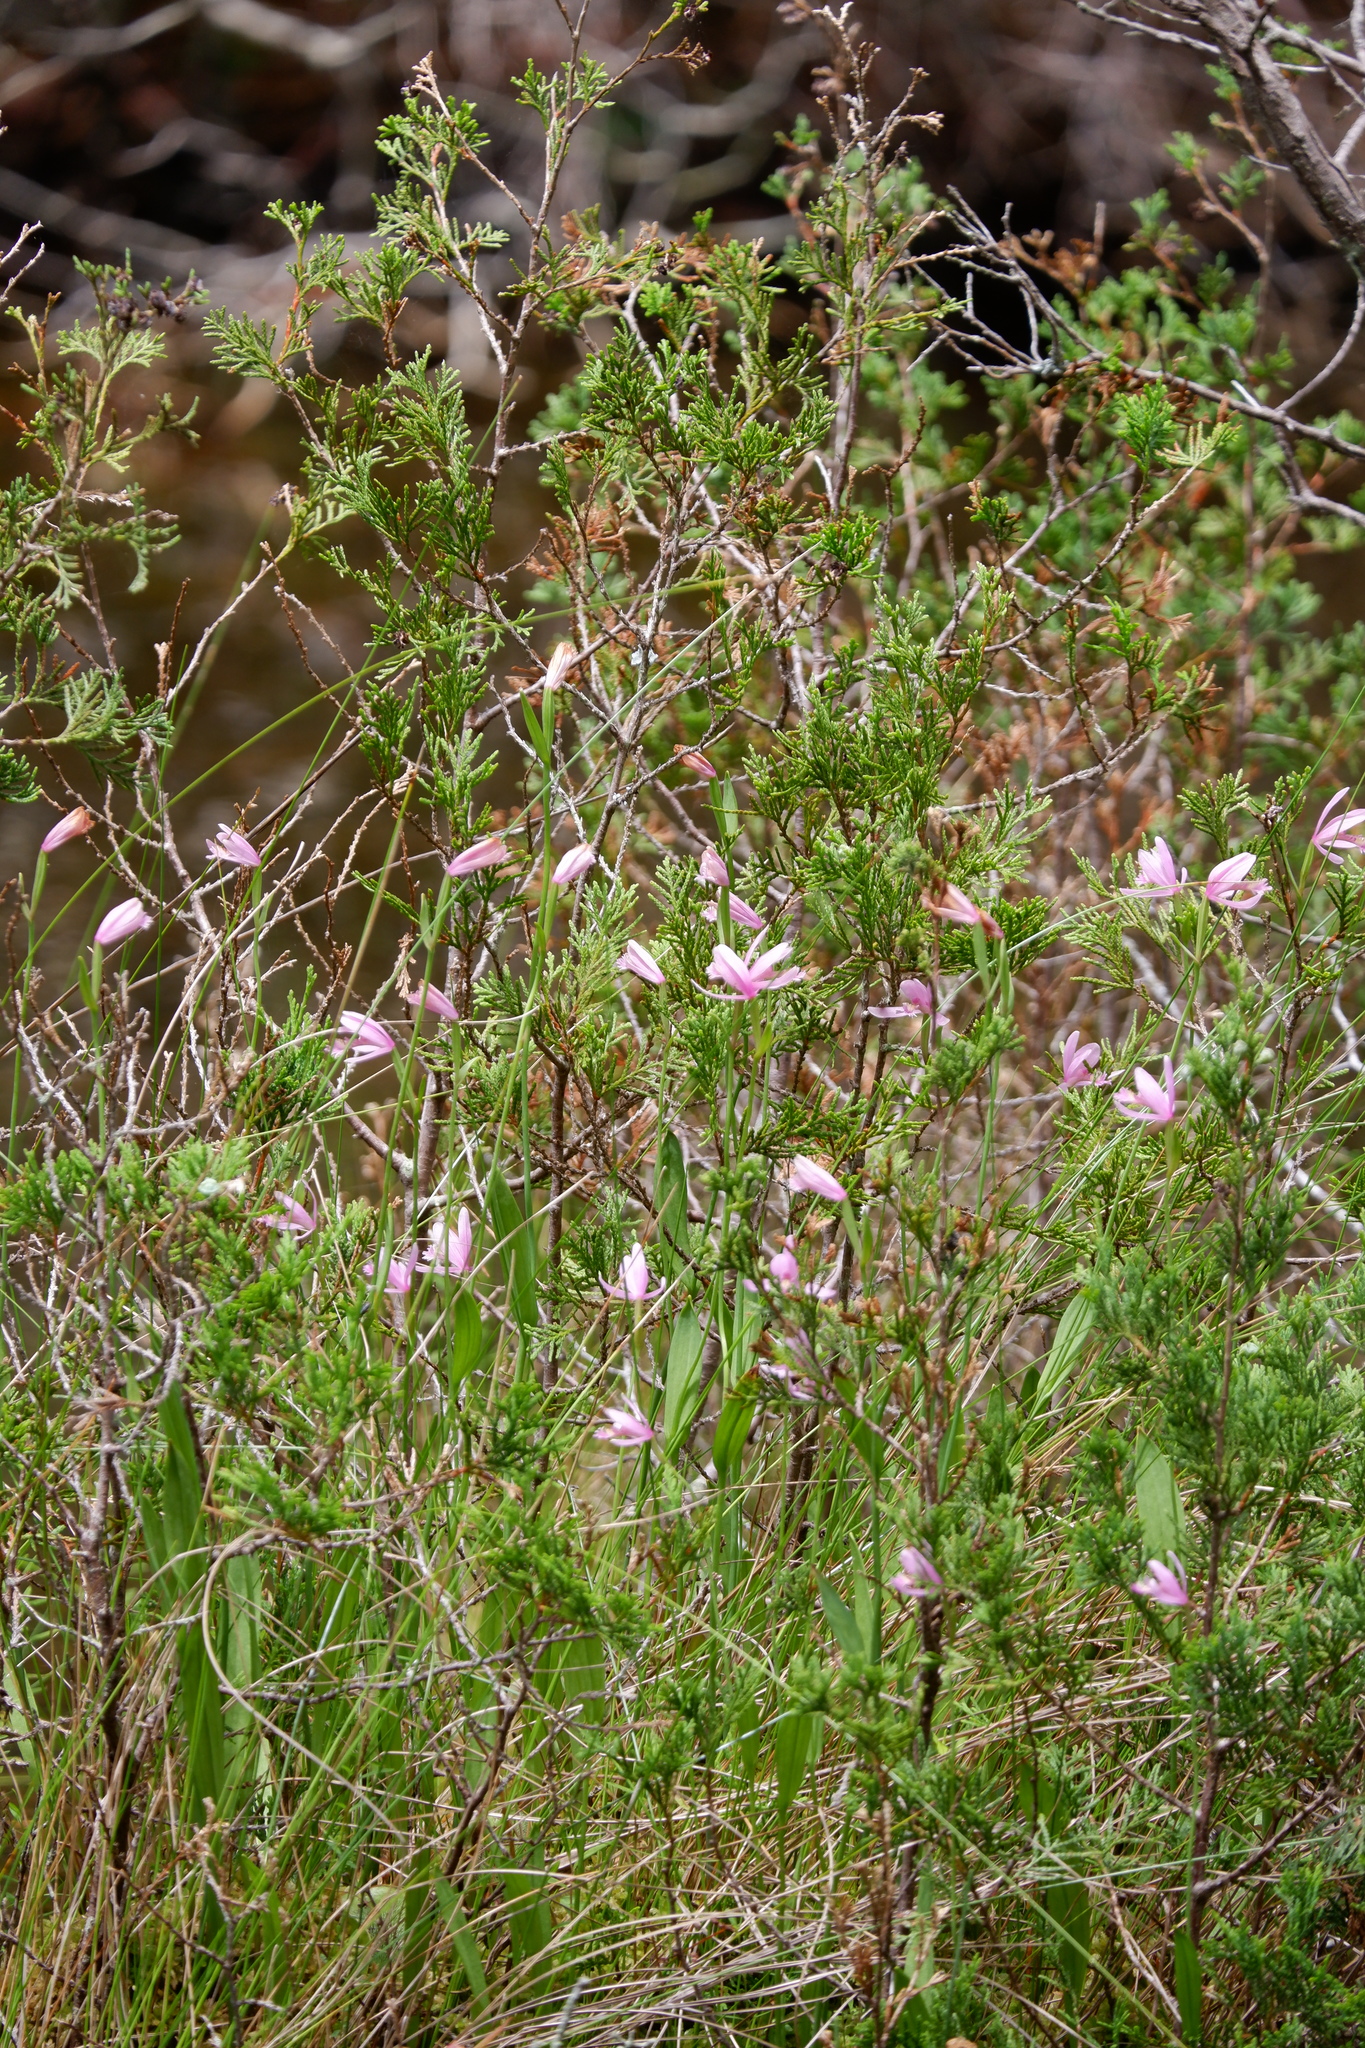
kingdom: Plantae
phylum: Tracheophyta
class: Liliopsida
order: Asparagales
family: Orchidaceae
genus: Pogonia
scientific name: Pogonia ophioglossoides
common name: Rose pogonia
